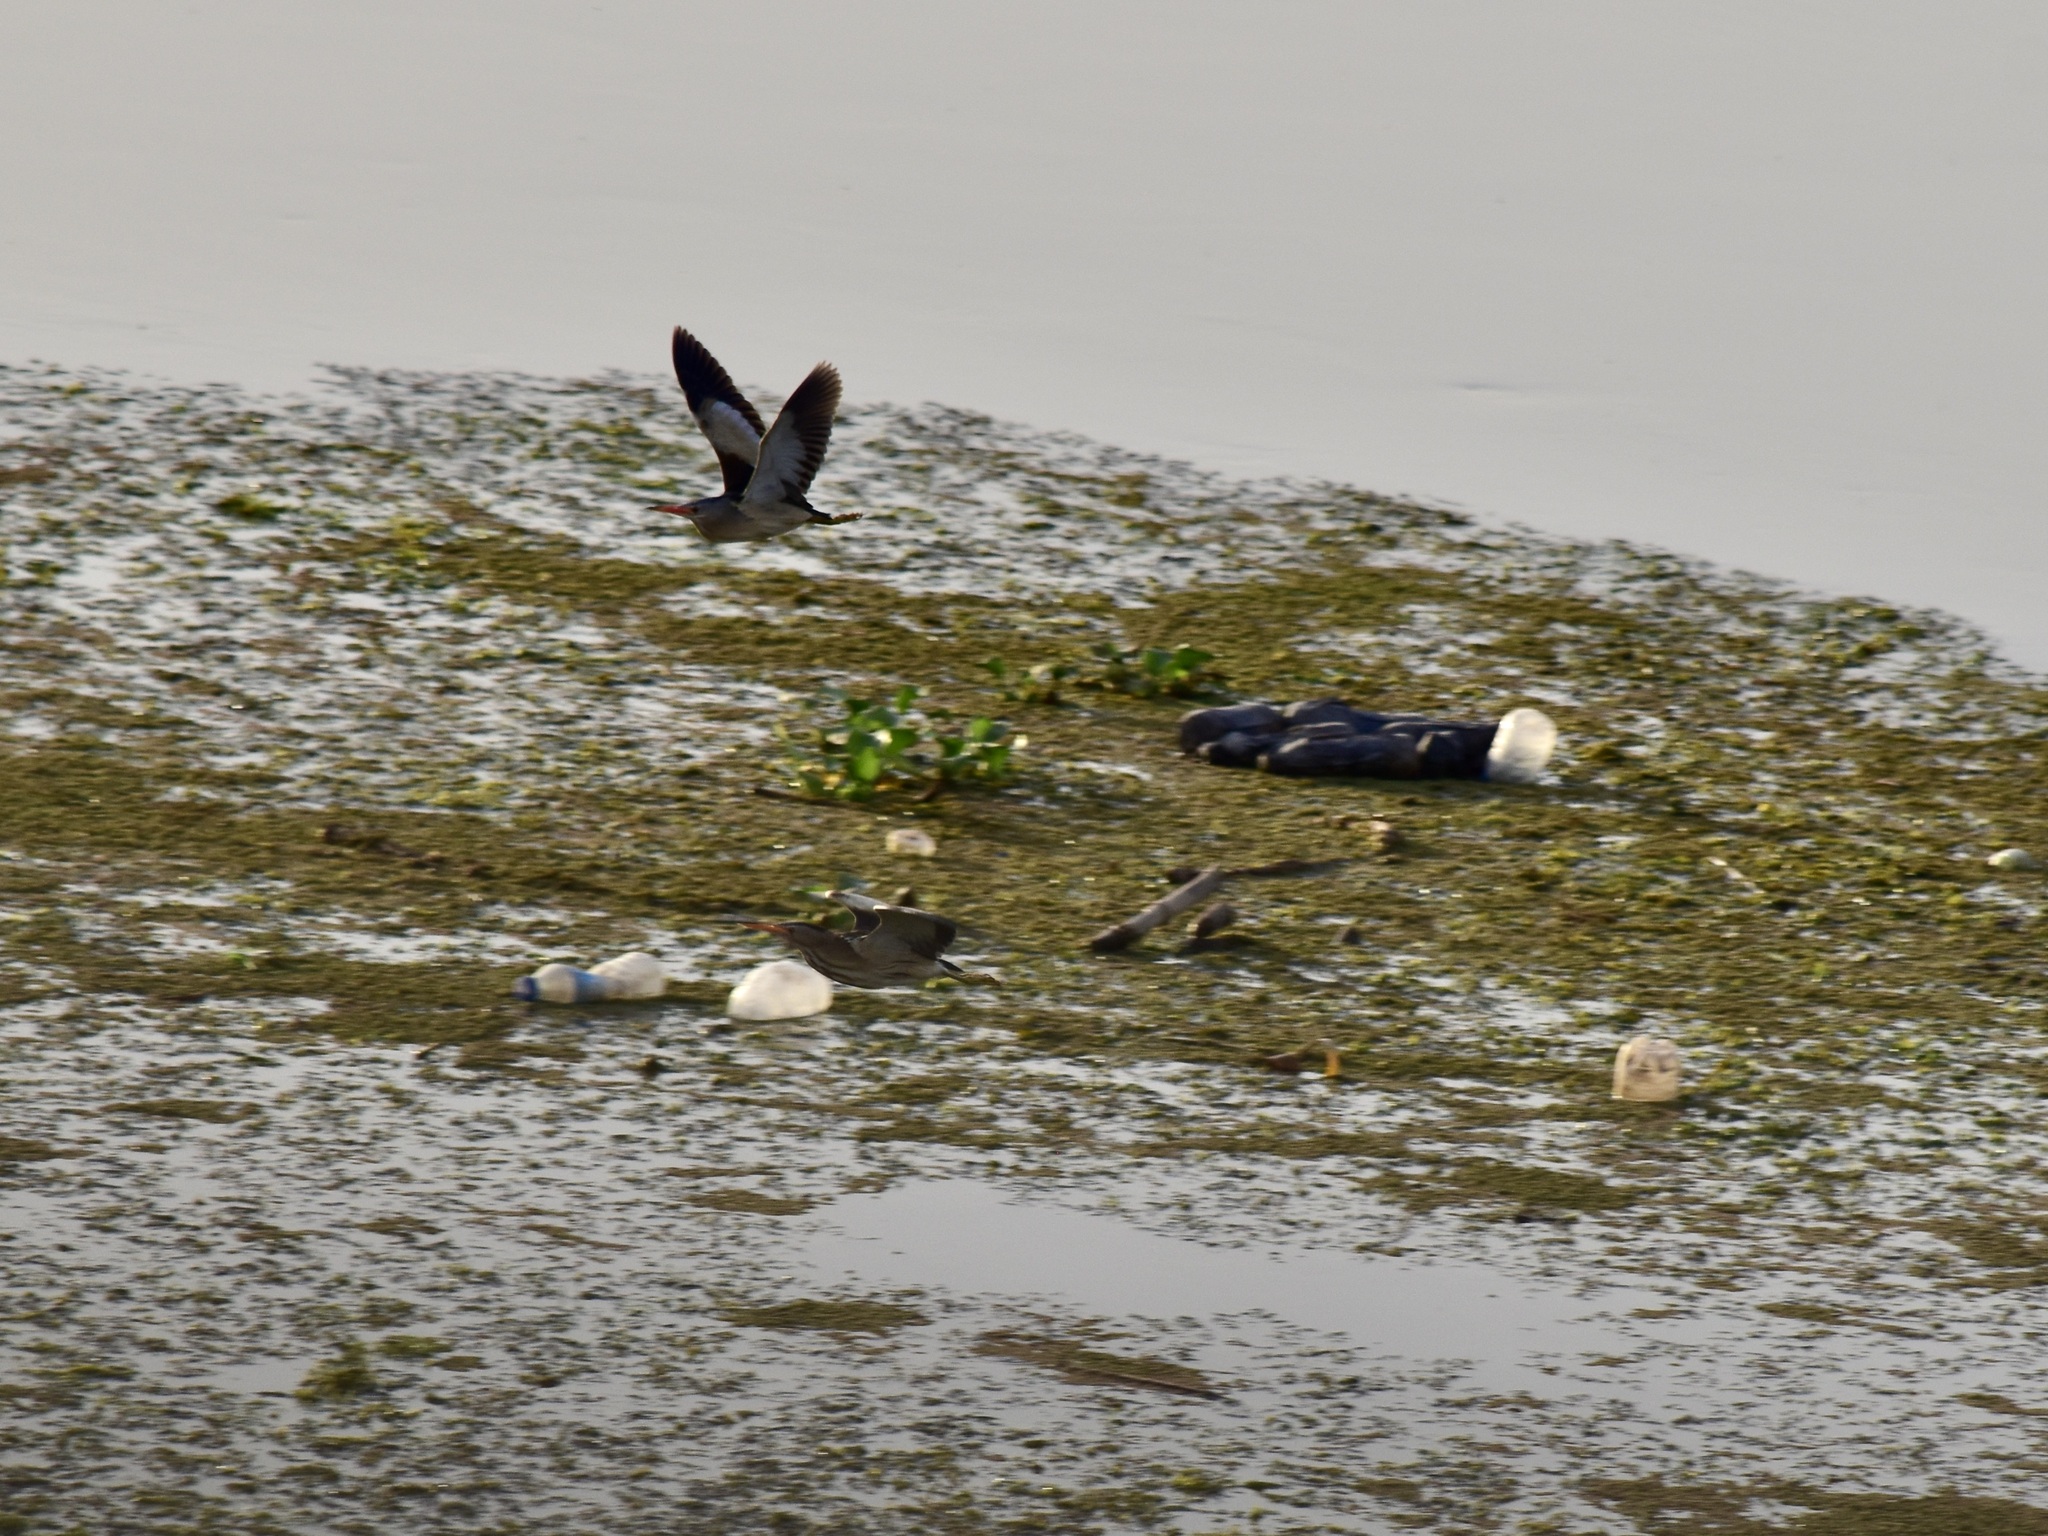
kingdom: Animalia
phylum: Chordata
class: Aves
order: Pelecaniformes
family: Ardeidae
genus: Ixobrychus
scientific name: Ixobrychus minutus
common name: Little bittern
